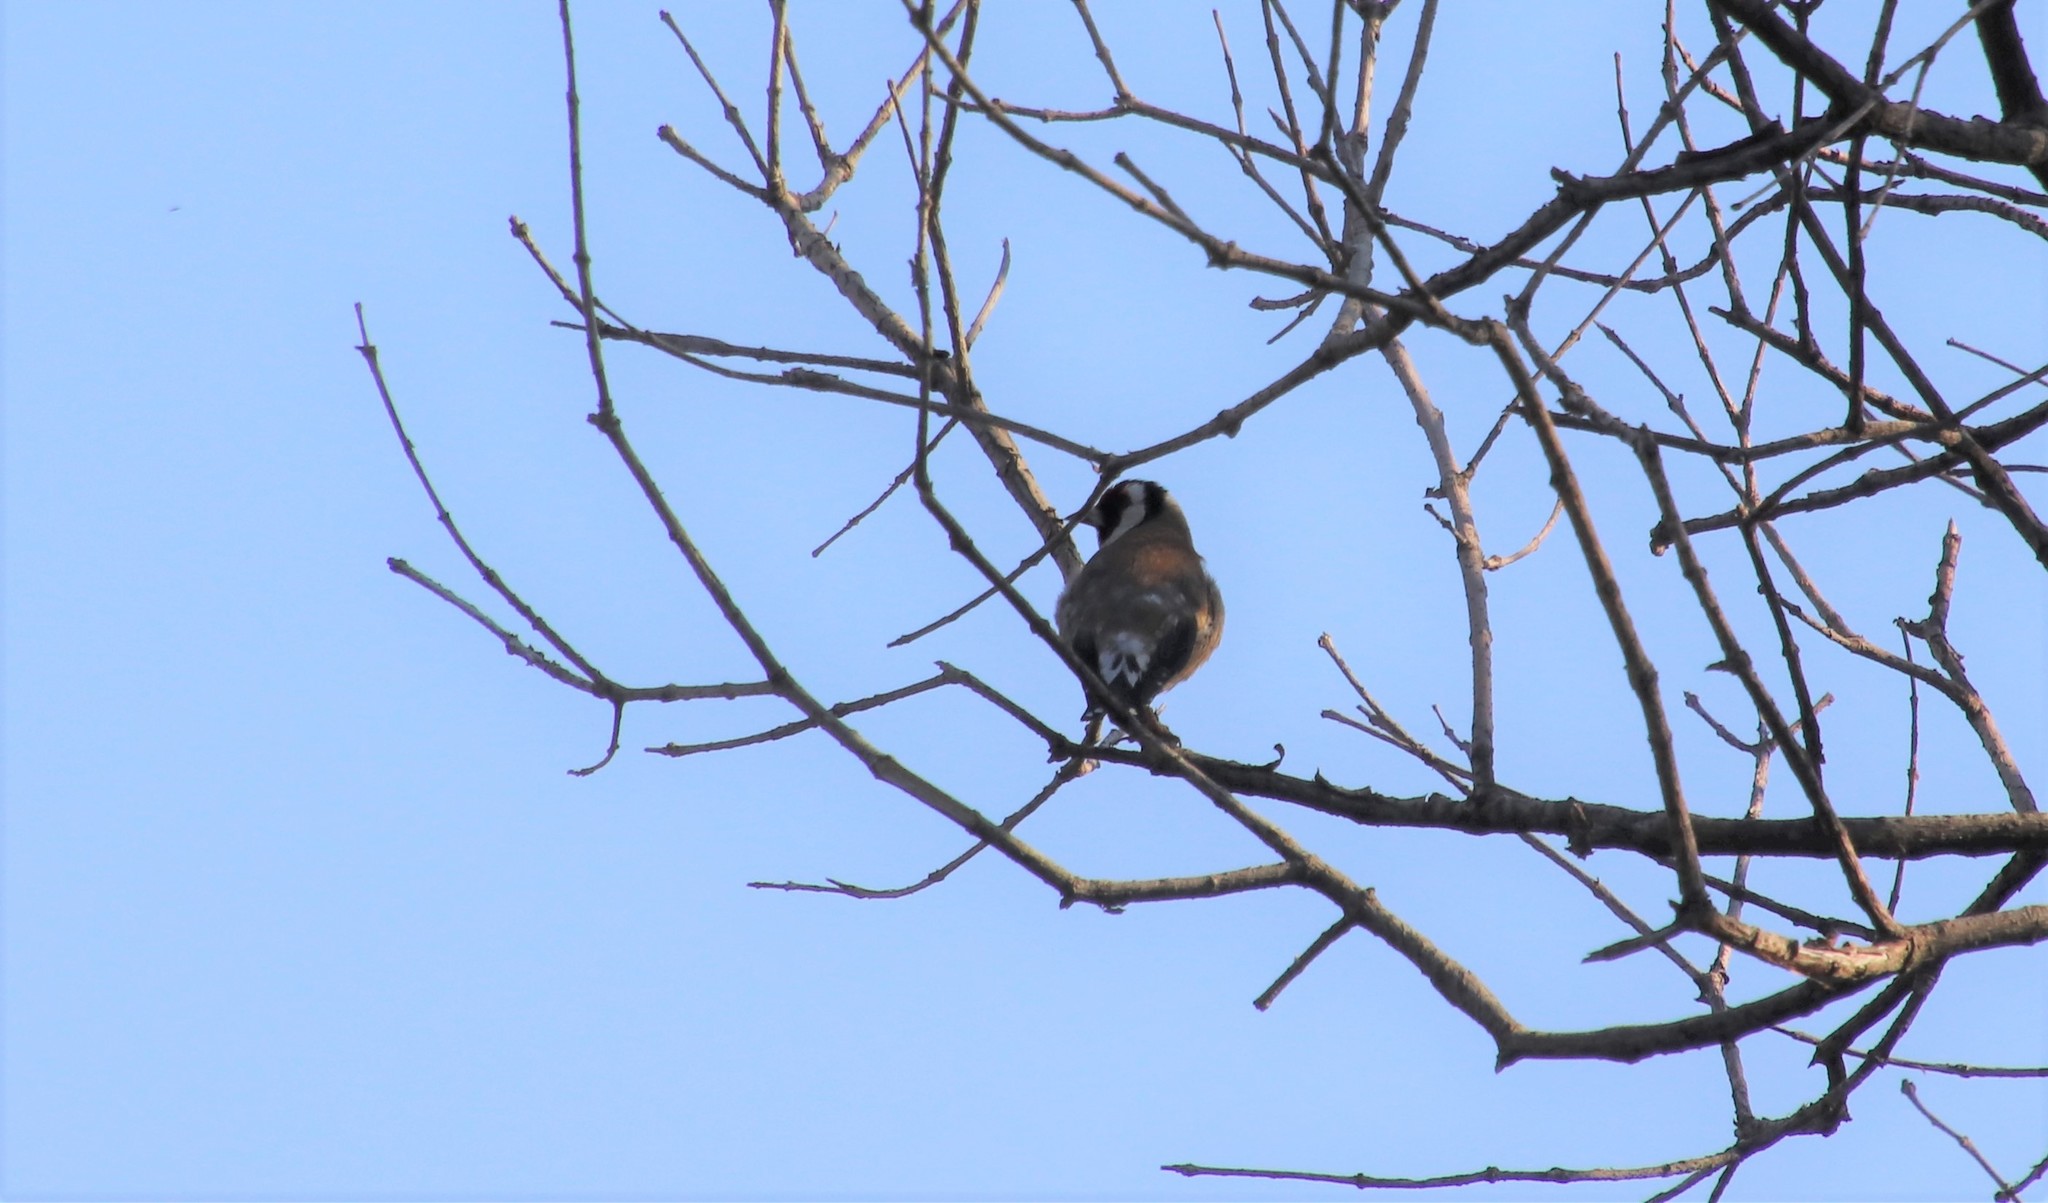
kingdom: Animalia
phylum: Chordata
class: Aves
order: Passeriformes
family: Fringillidae
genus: Carduelis
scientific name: Carduelis carduelis
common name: European goldfinch
